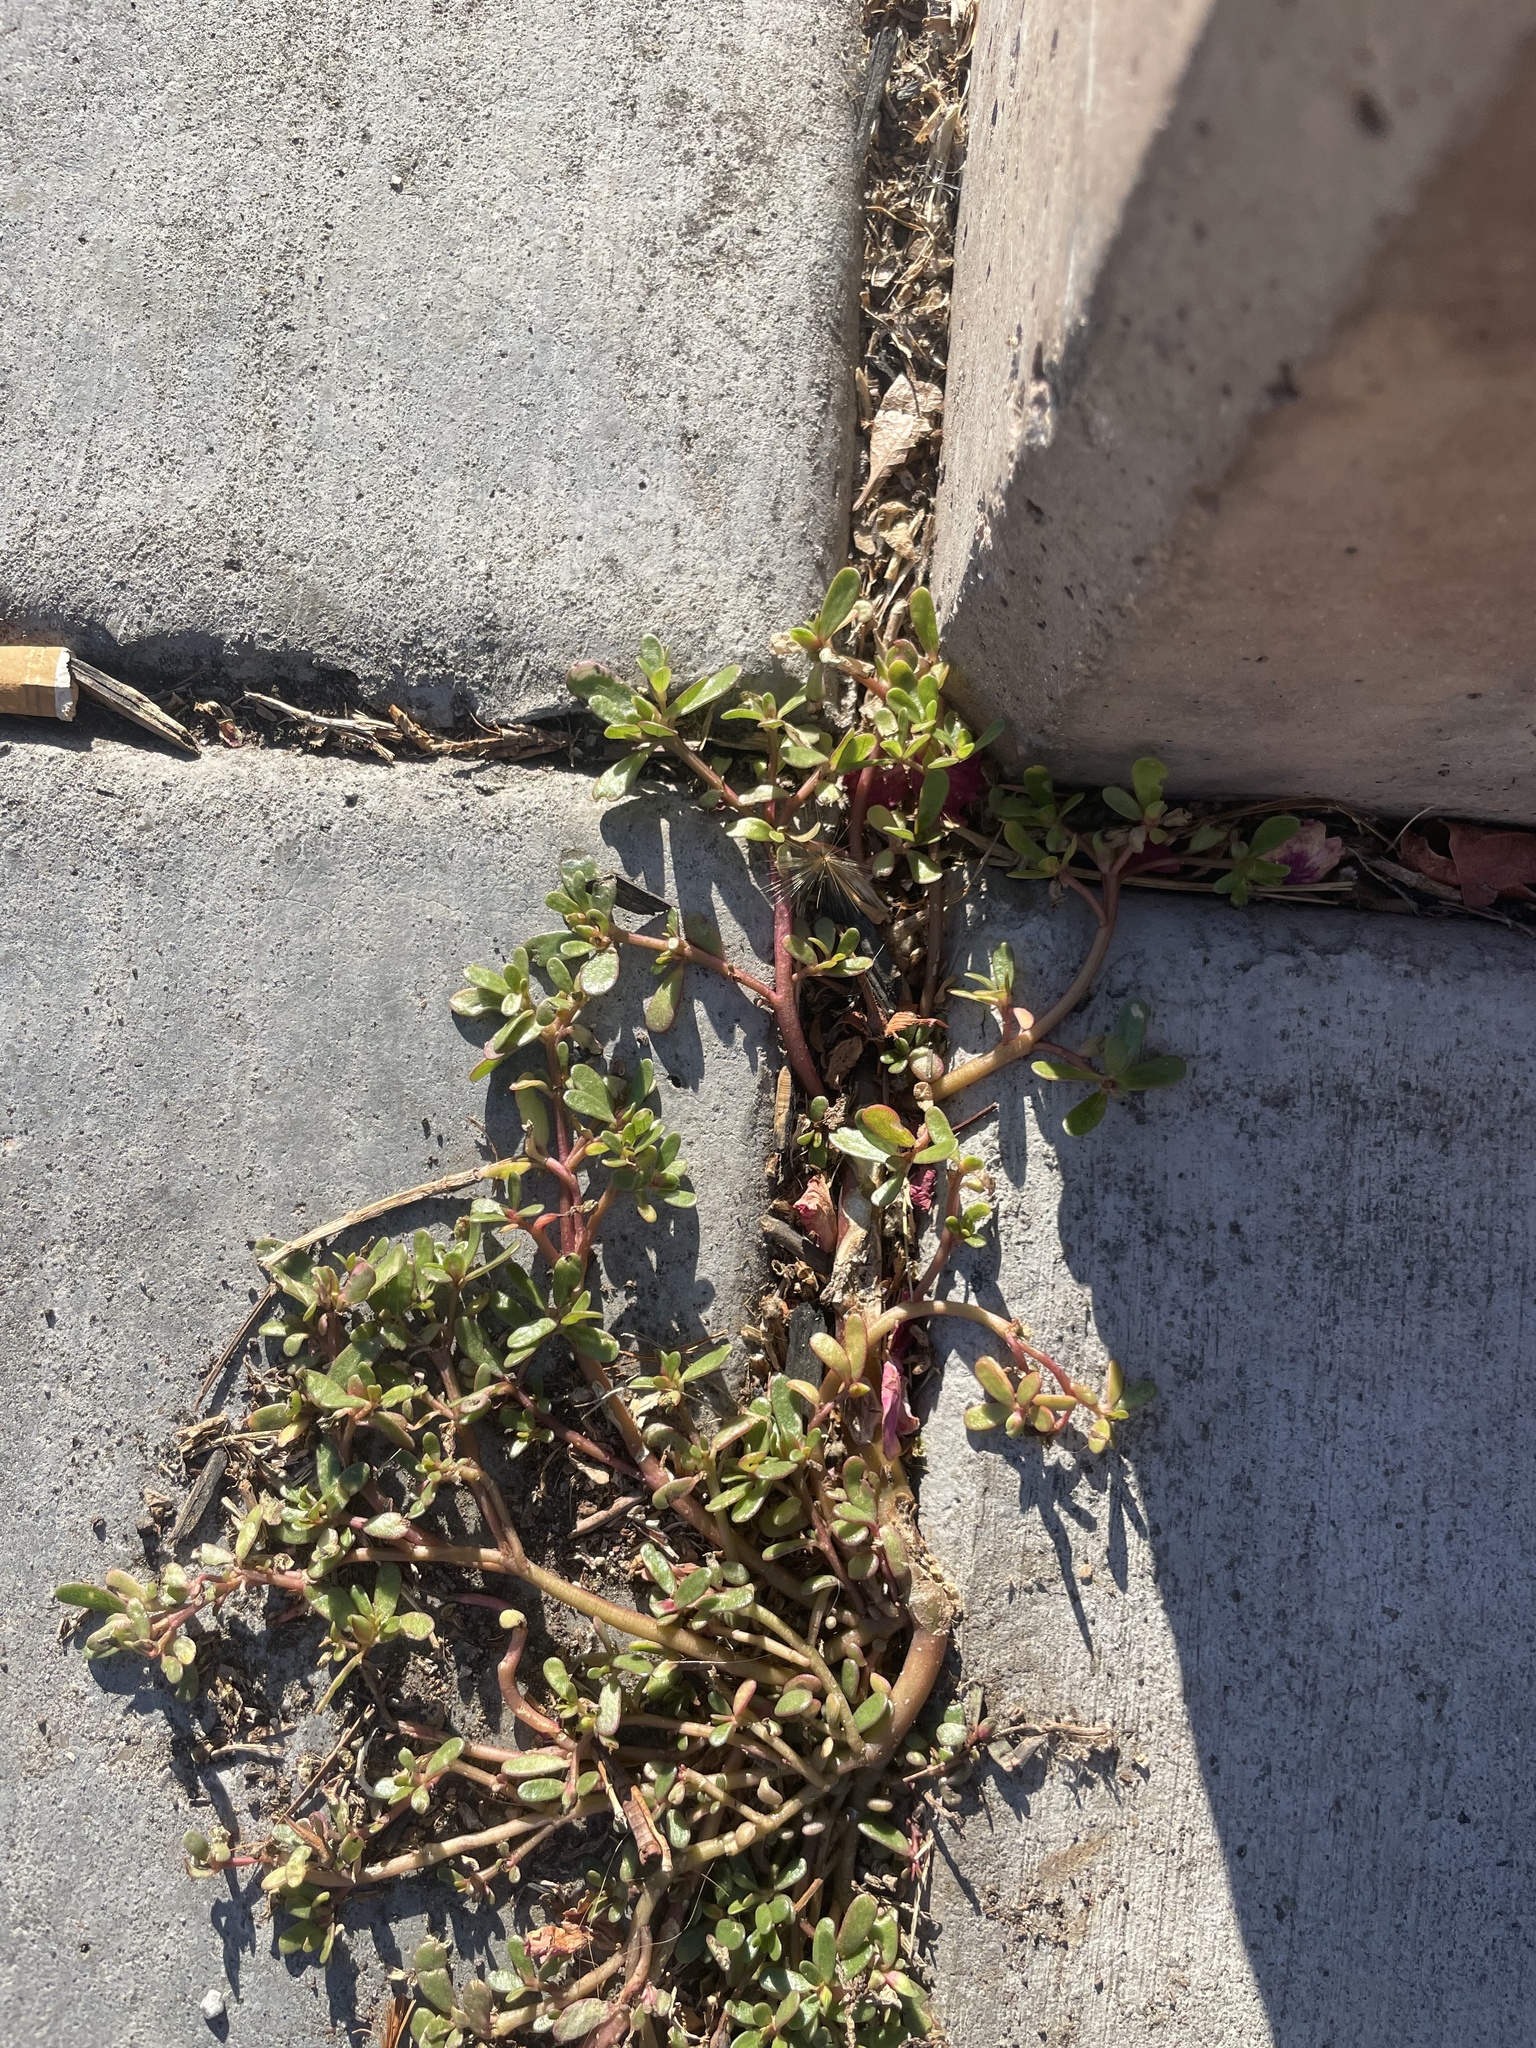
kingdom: Plantae
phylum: Tracheophyta
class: Magnoliopsida
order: Caryophyllales
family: Portulacaceae
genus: Portulaca
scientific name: Portulaca oleracea
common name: Common purslane
